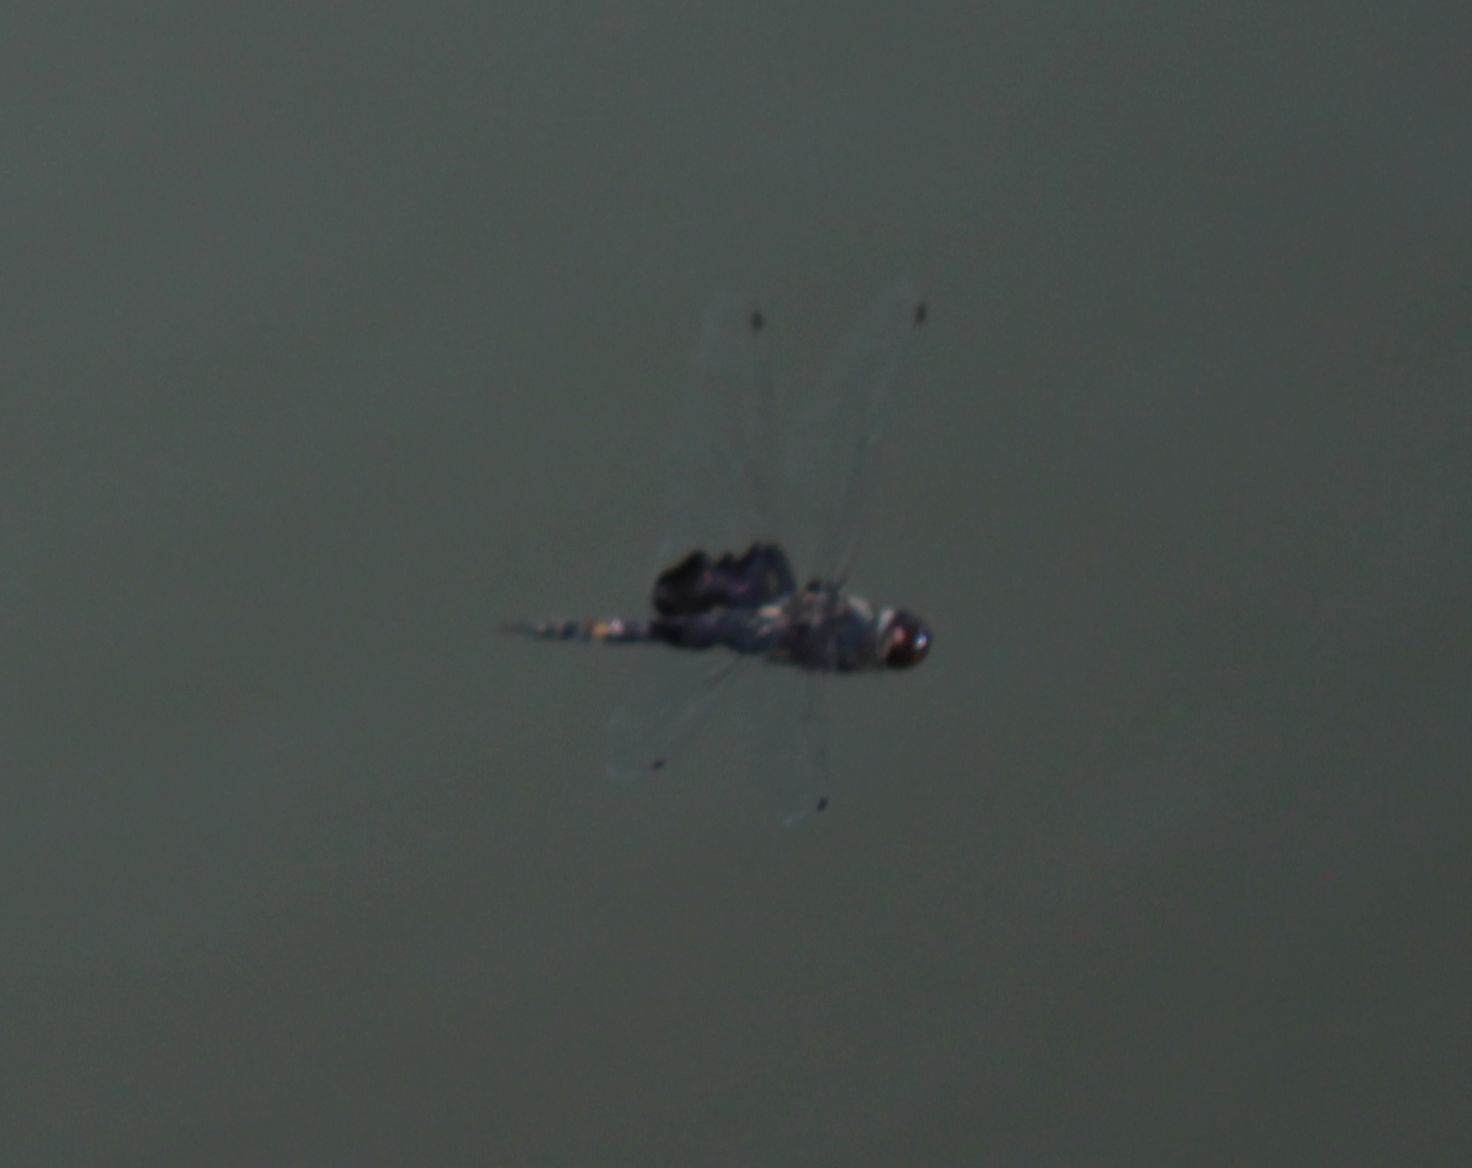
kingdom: Animalia
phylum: Arthropoda
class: Insecta
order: Odonata
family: Libellulidae
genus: Tramea
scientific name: Tramea lacerata
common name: Black saddlebags
